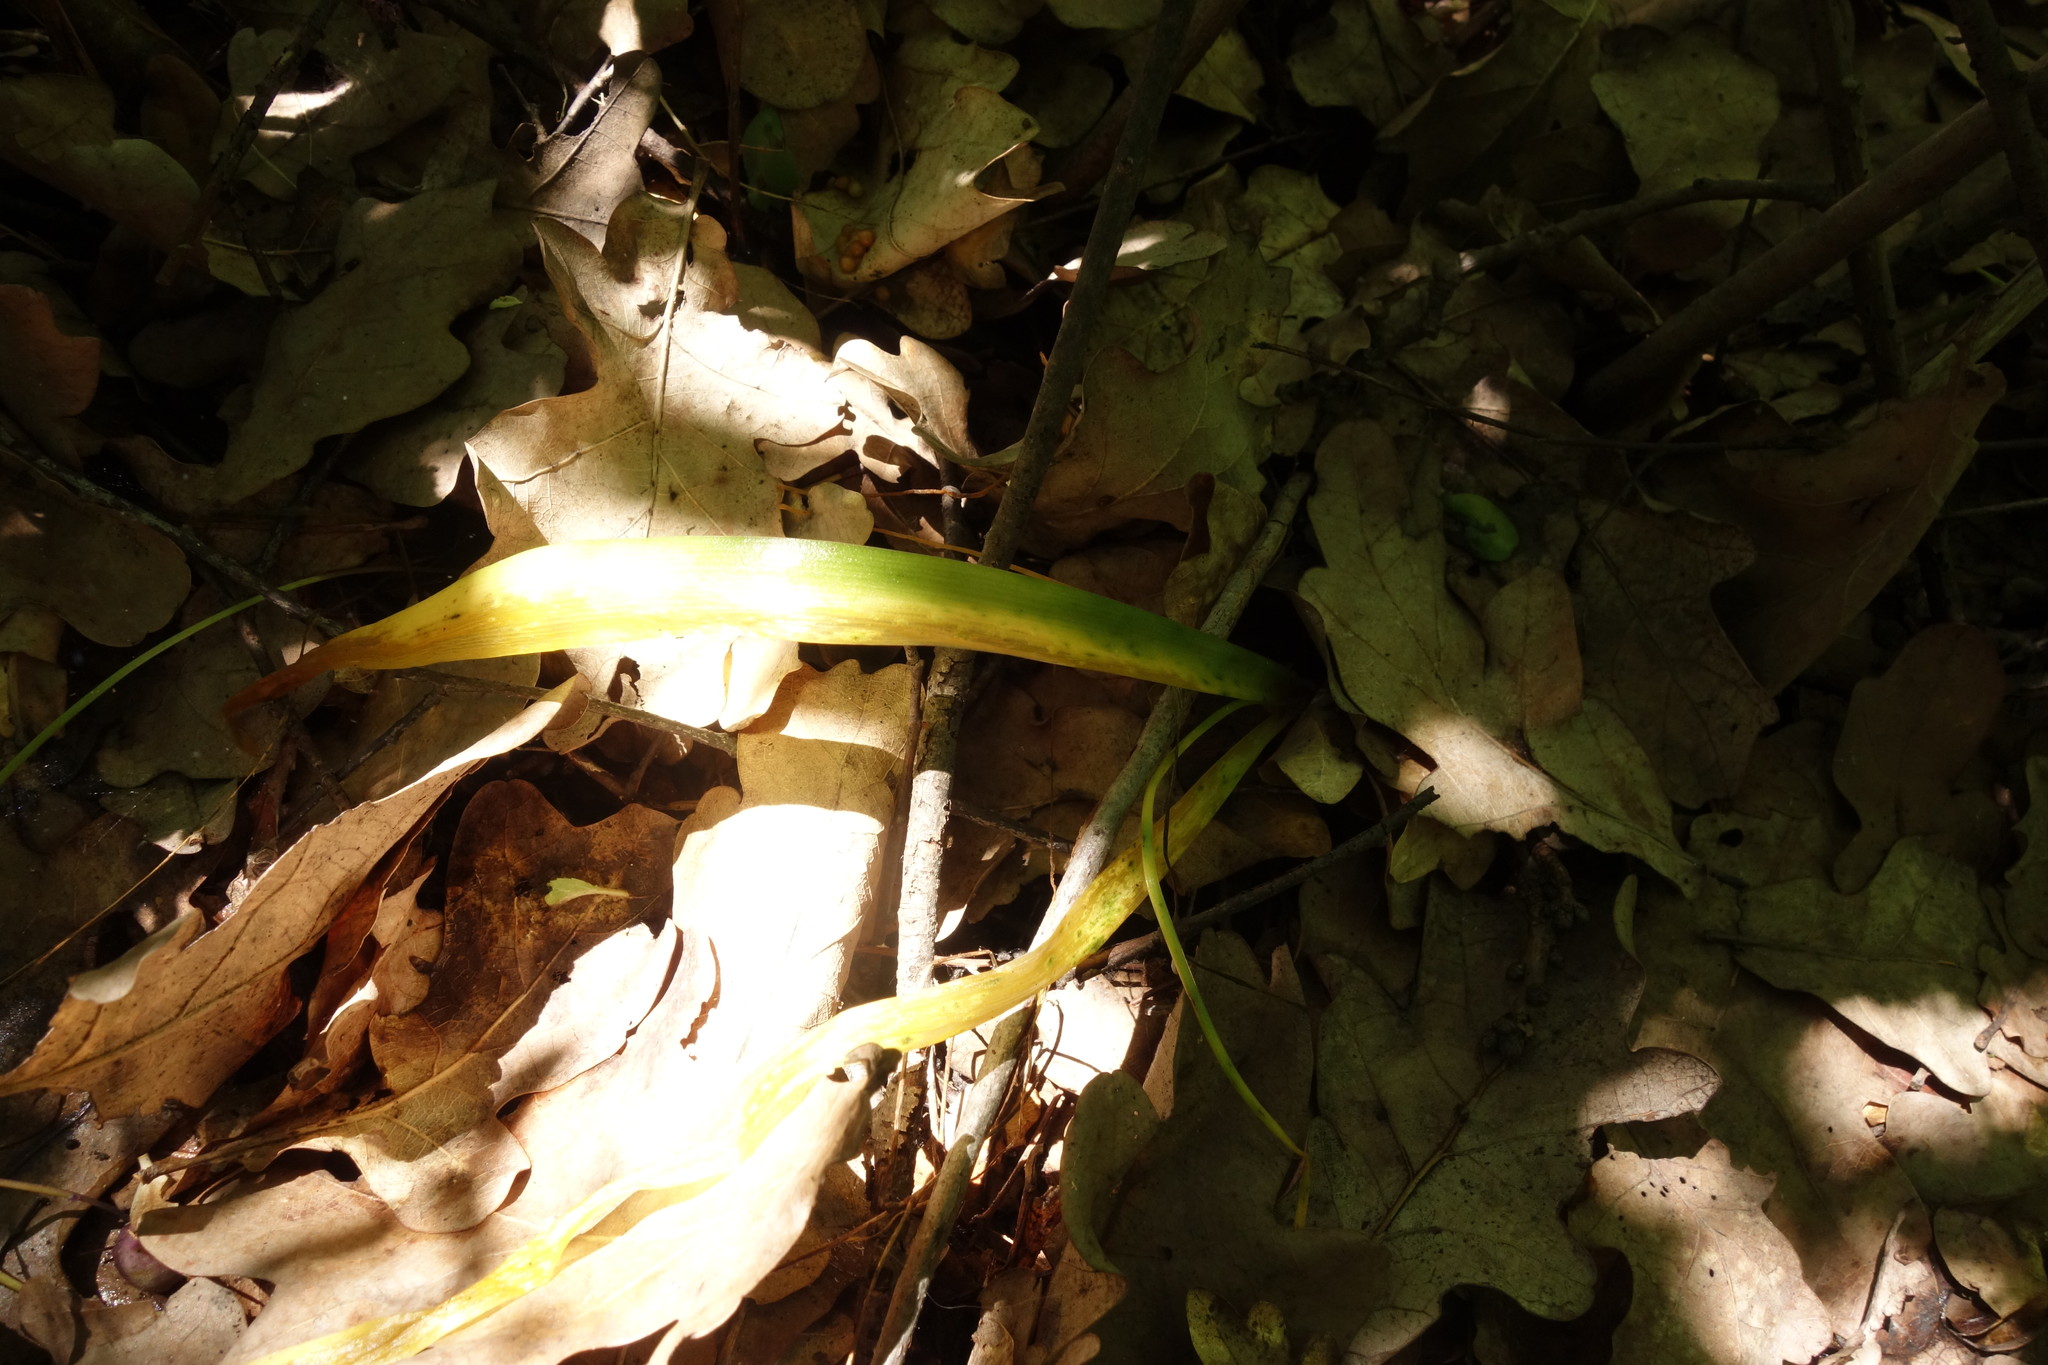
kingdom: Plantae
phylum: Tracheophyta
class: Liliopsida
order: Asparagales
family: Asparagaceae
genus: Scilla
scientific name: Scilla siberica
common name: Siberian squill
